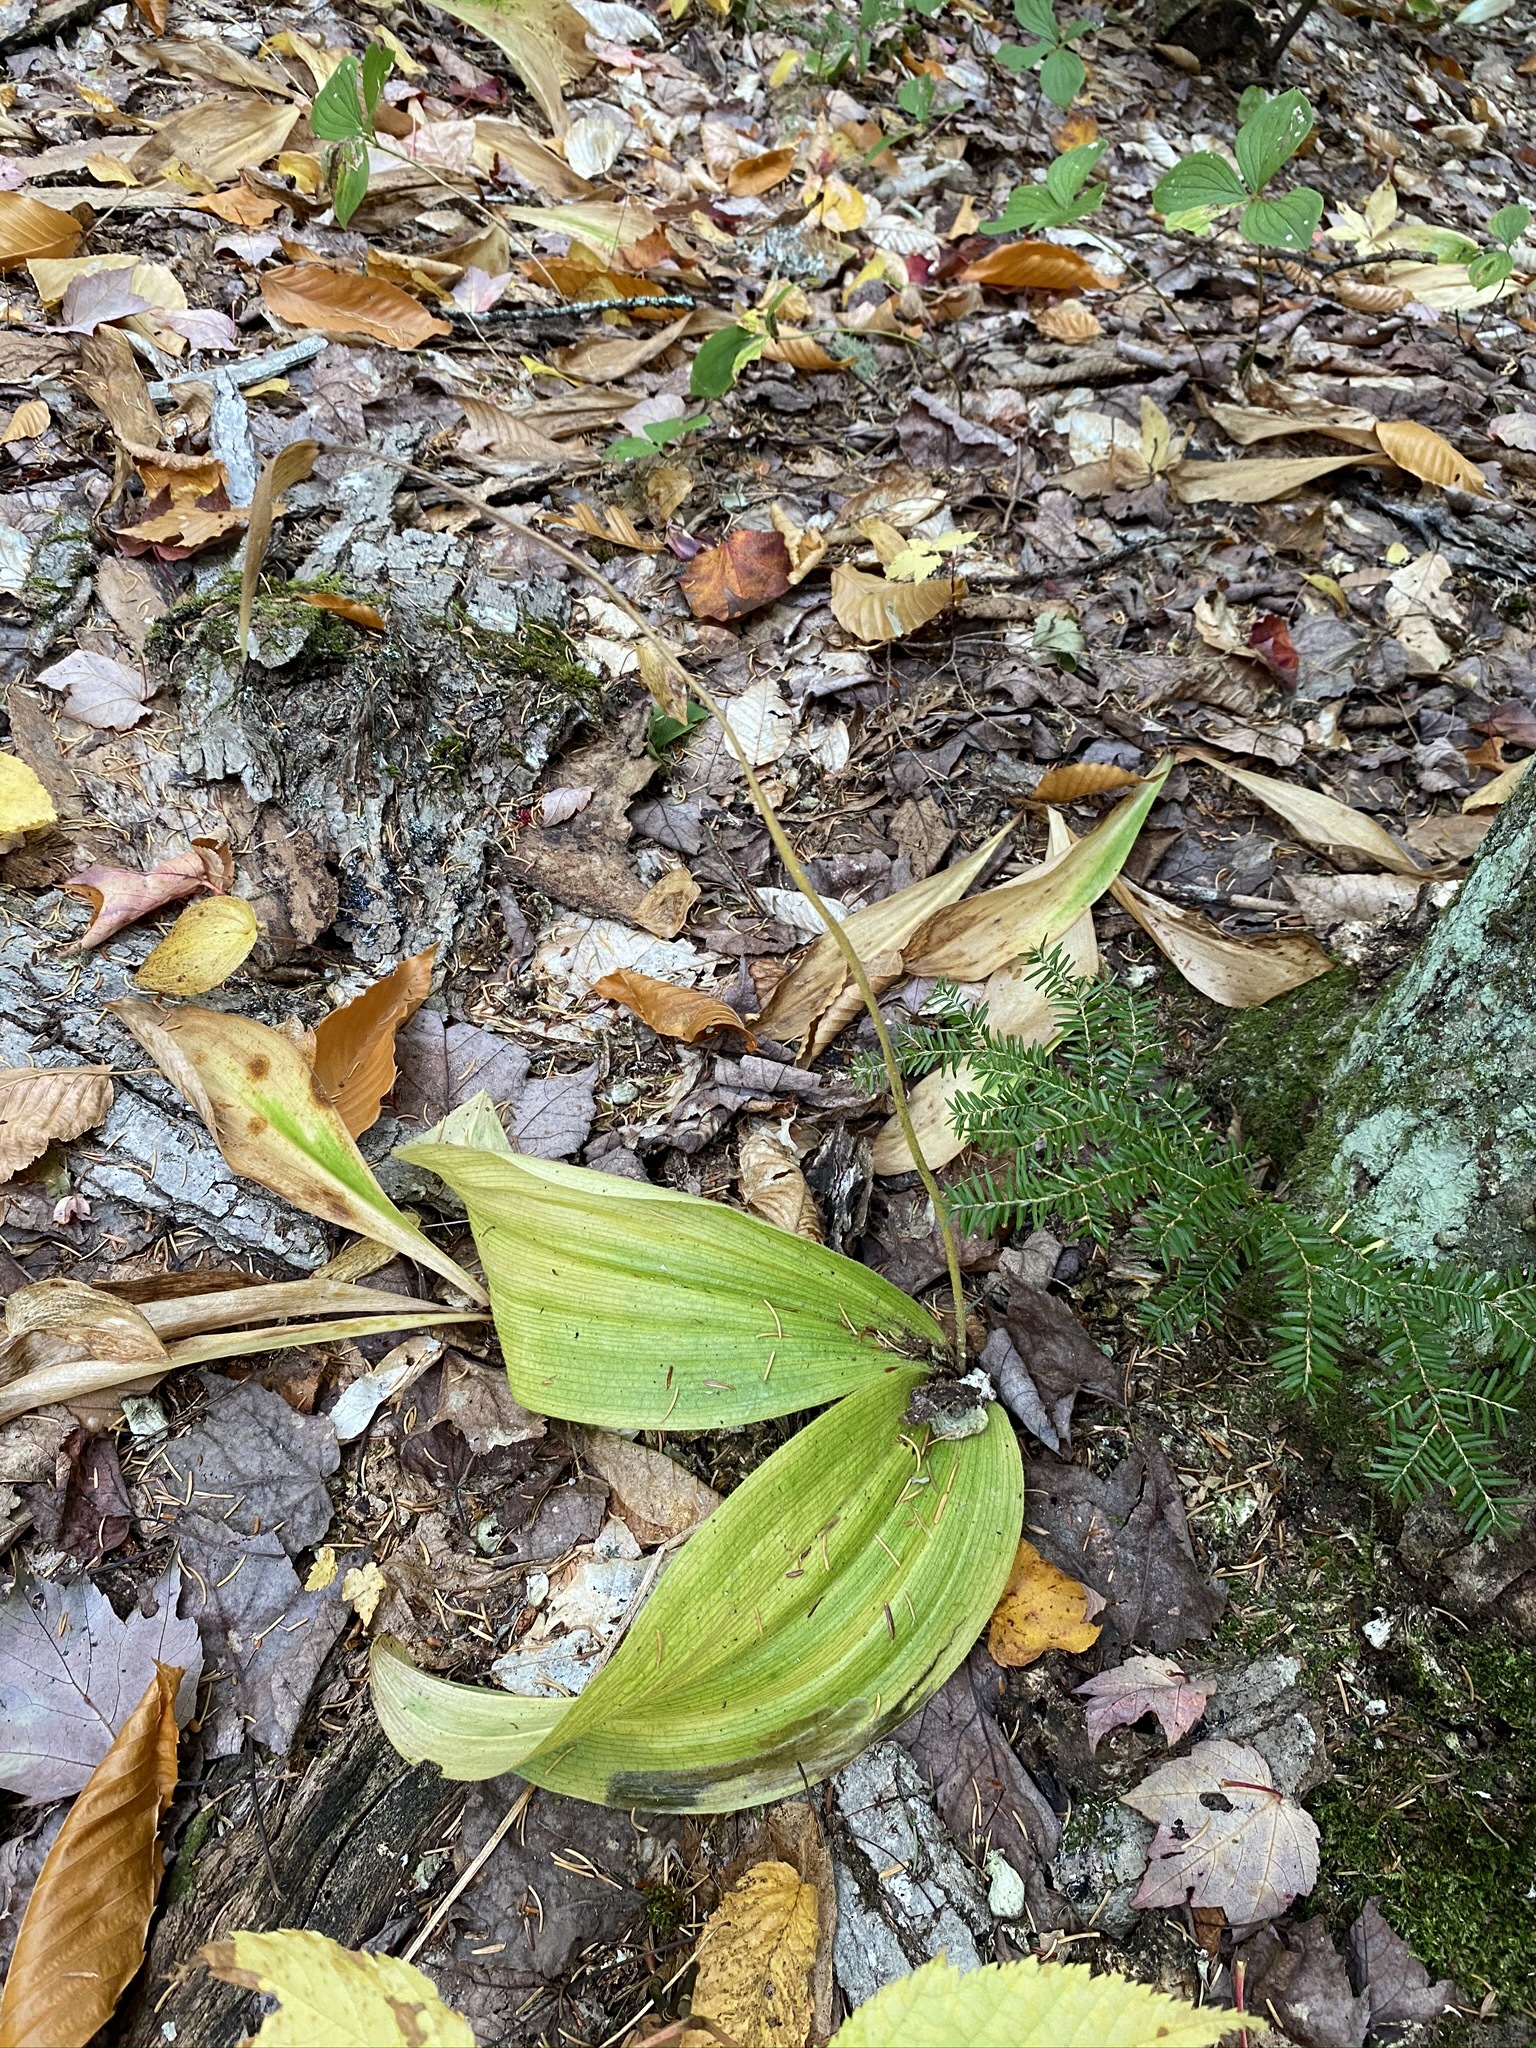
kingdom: Plantae
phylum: Tracheophyta
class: Liliopsida
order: Asparagales
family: Orchidaceae
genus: Cypripedium
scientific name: Cypripedium acaule
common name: Pink lady's-slipper
